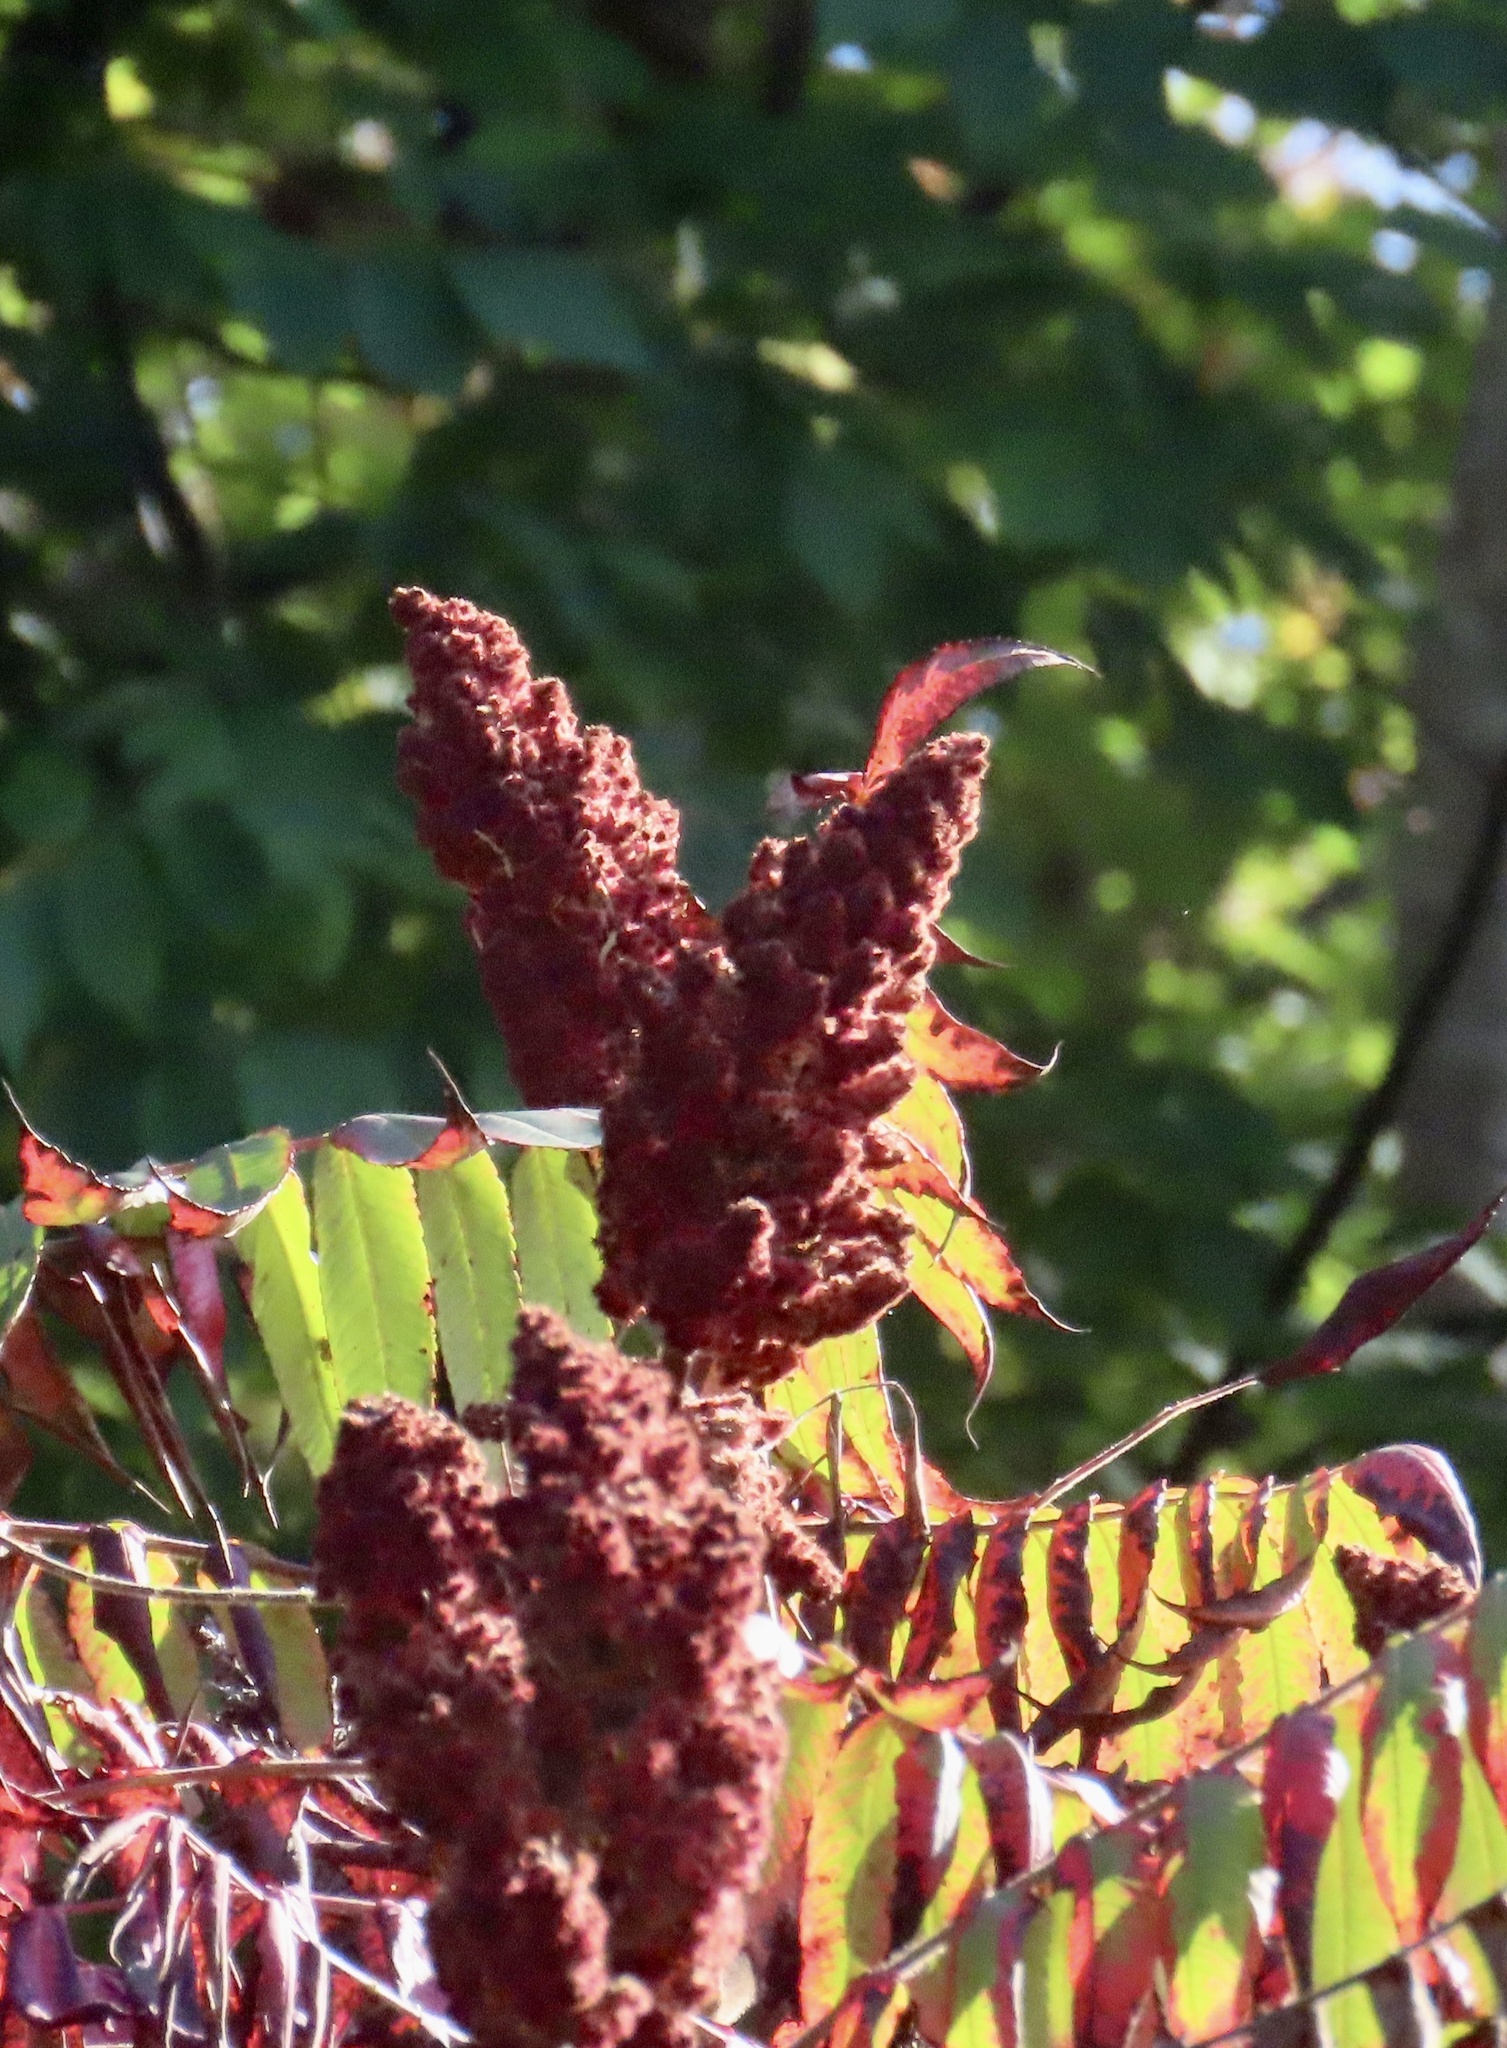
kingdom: Plantae
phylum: Tracheophyta
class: Magnoliopsida
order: Sapindales
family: Anacardiaceae
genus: Rhus
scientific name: Rhus typhina
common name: Staghorn sumac
